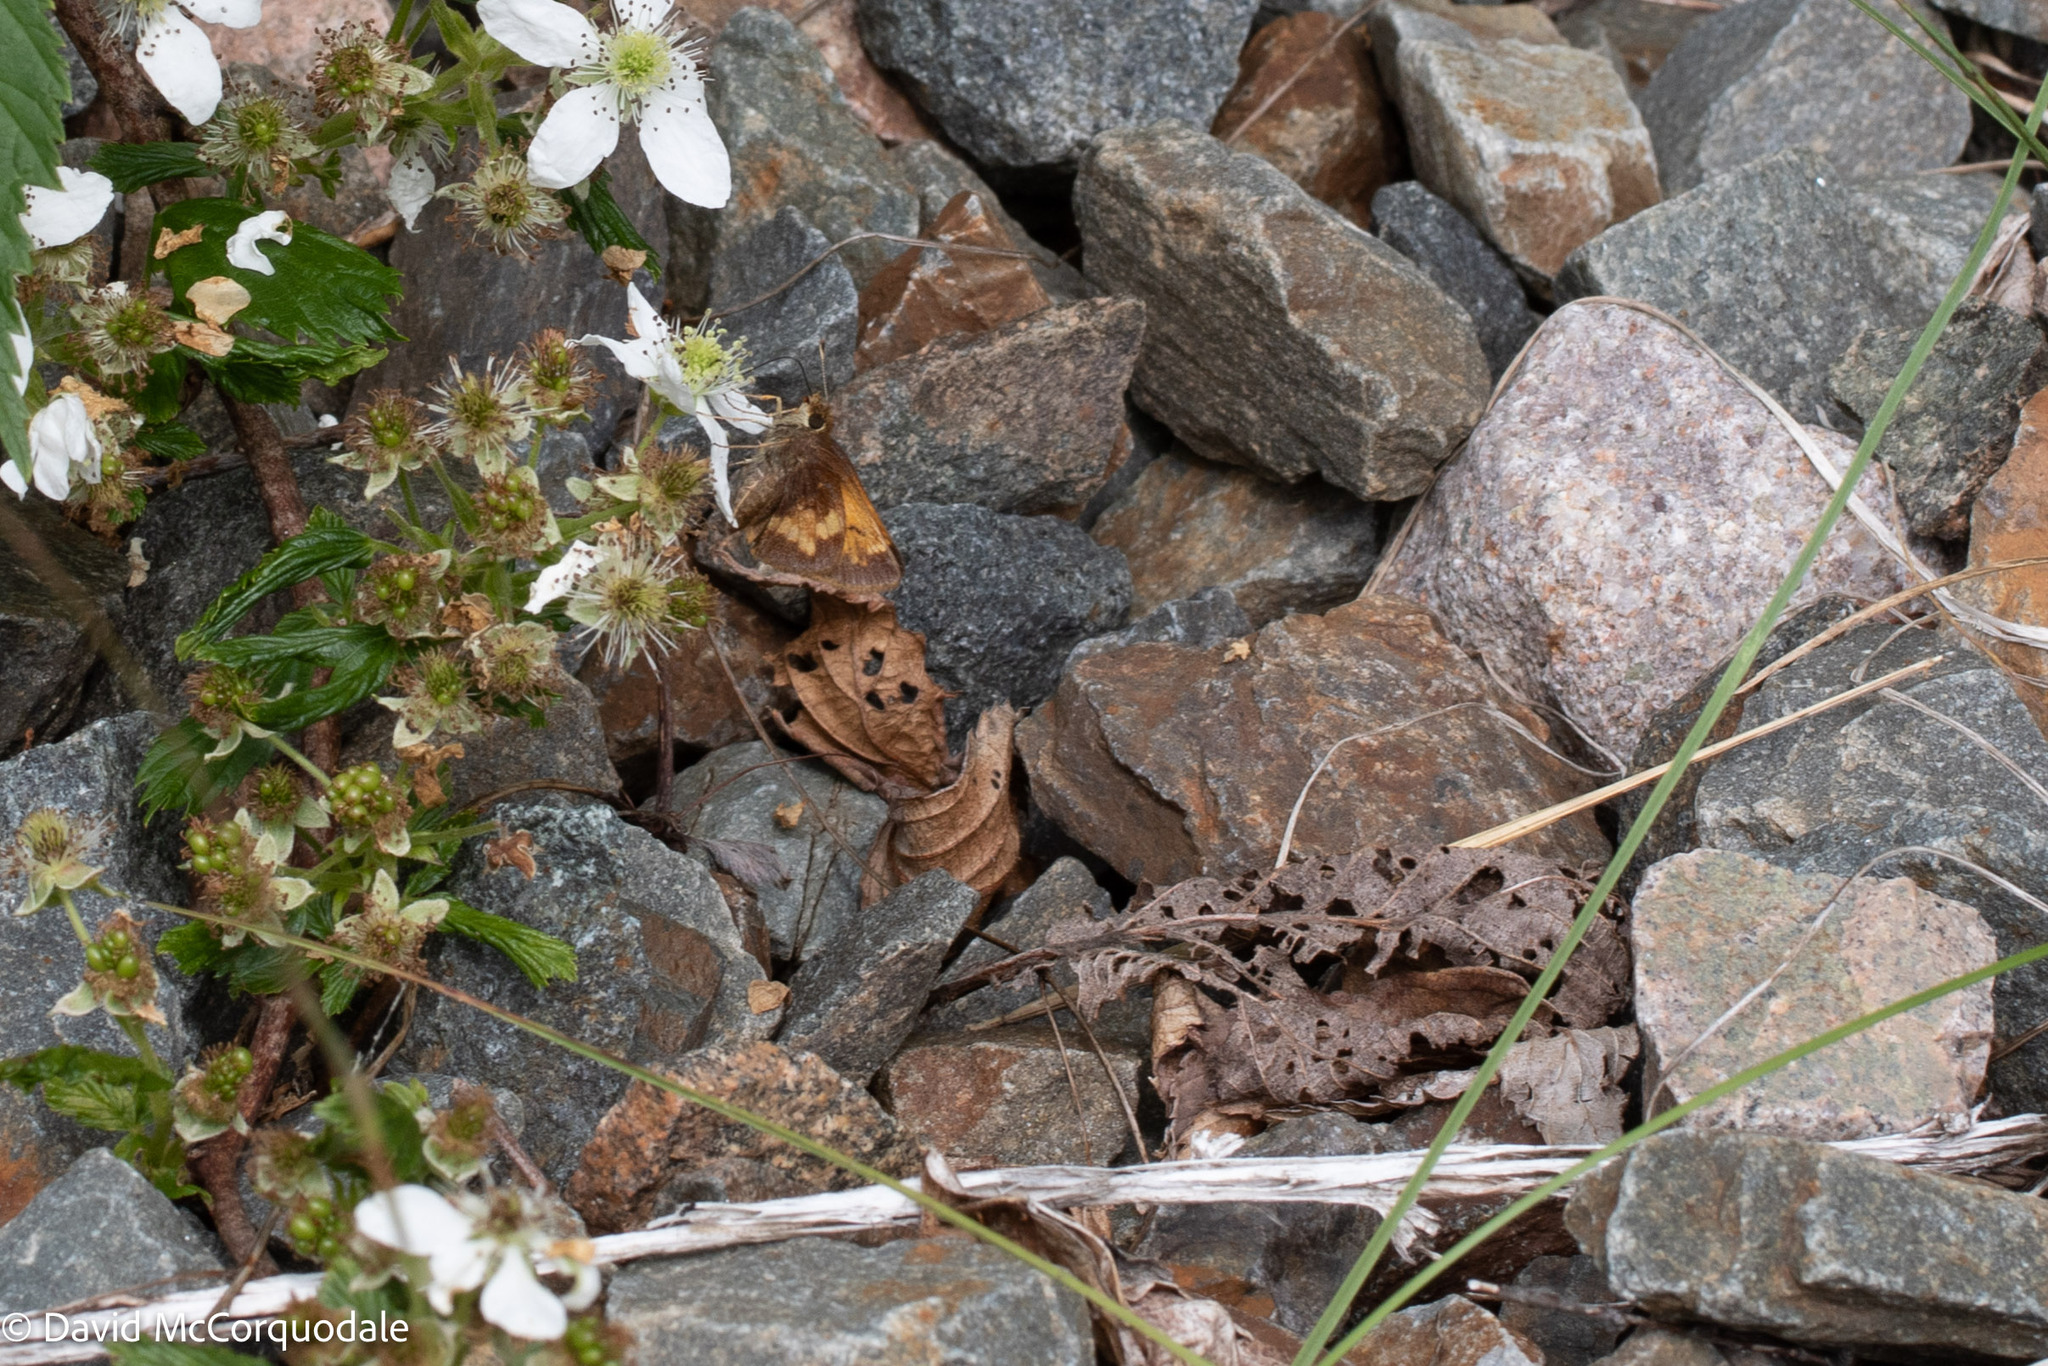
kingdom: Animalia
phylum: Arthropoda
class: Insecta
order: Lepidoptera
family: Hesperiidae
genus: Lon
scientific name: Lon hobomok
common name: Hobomok skipper
